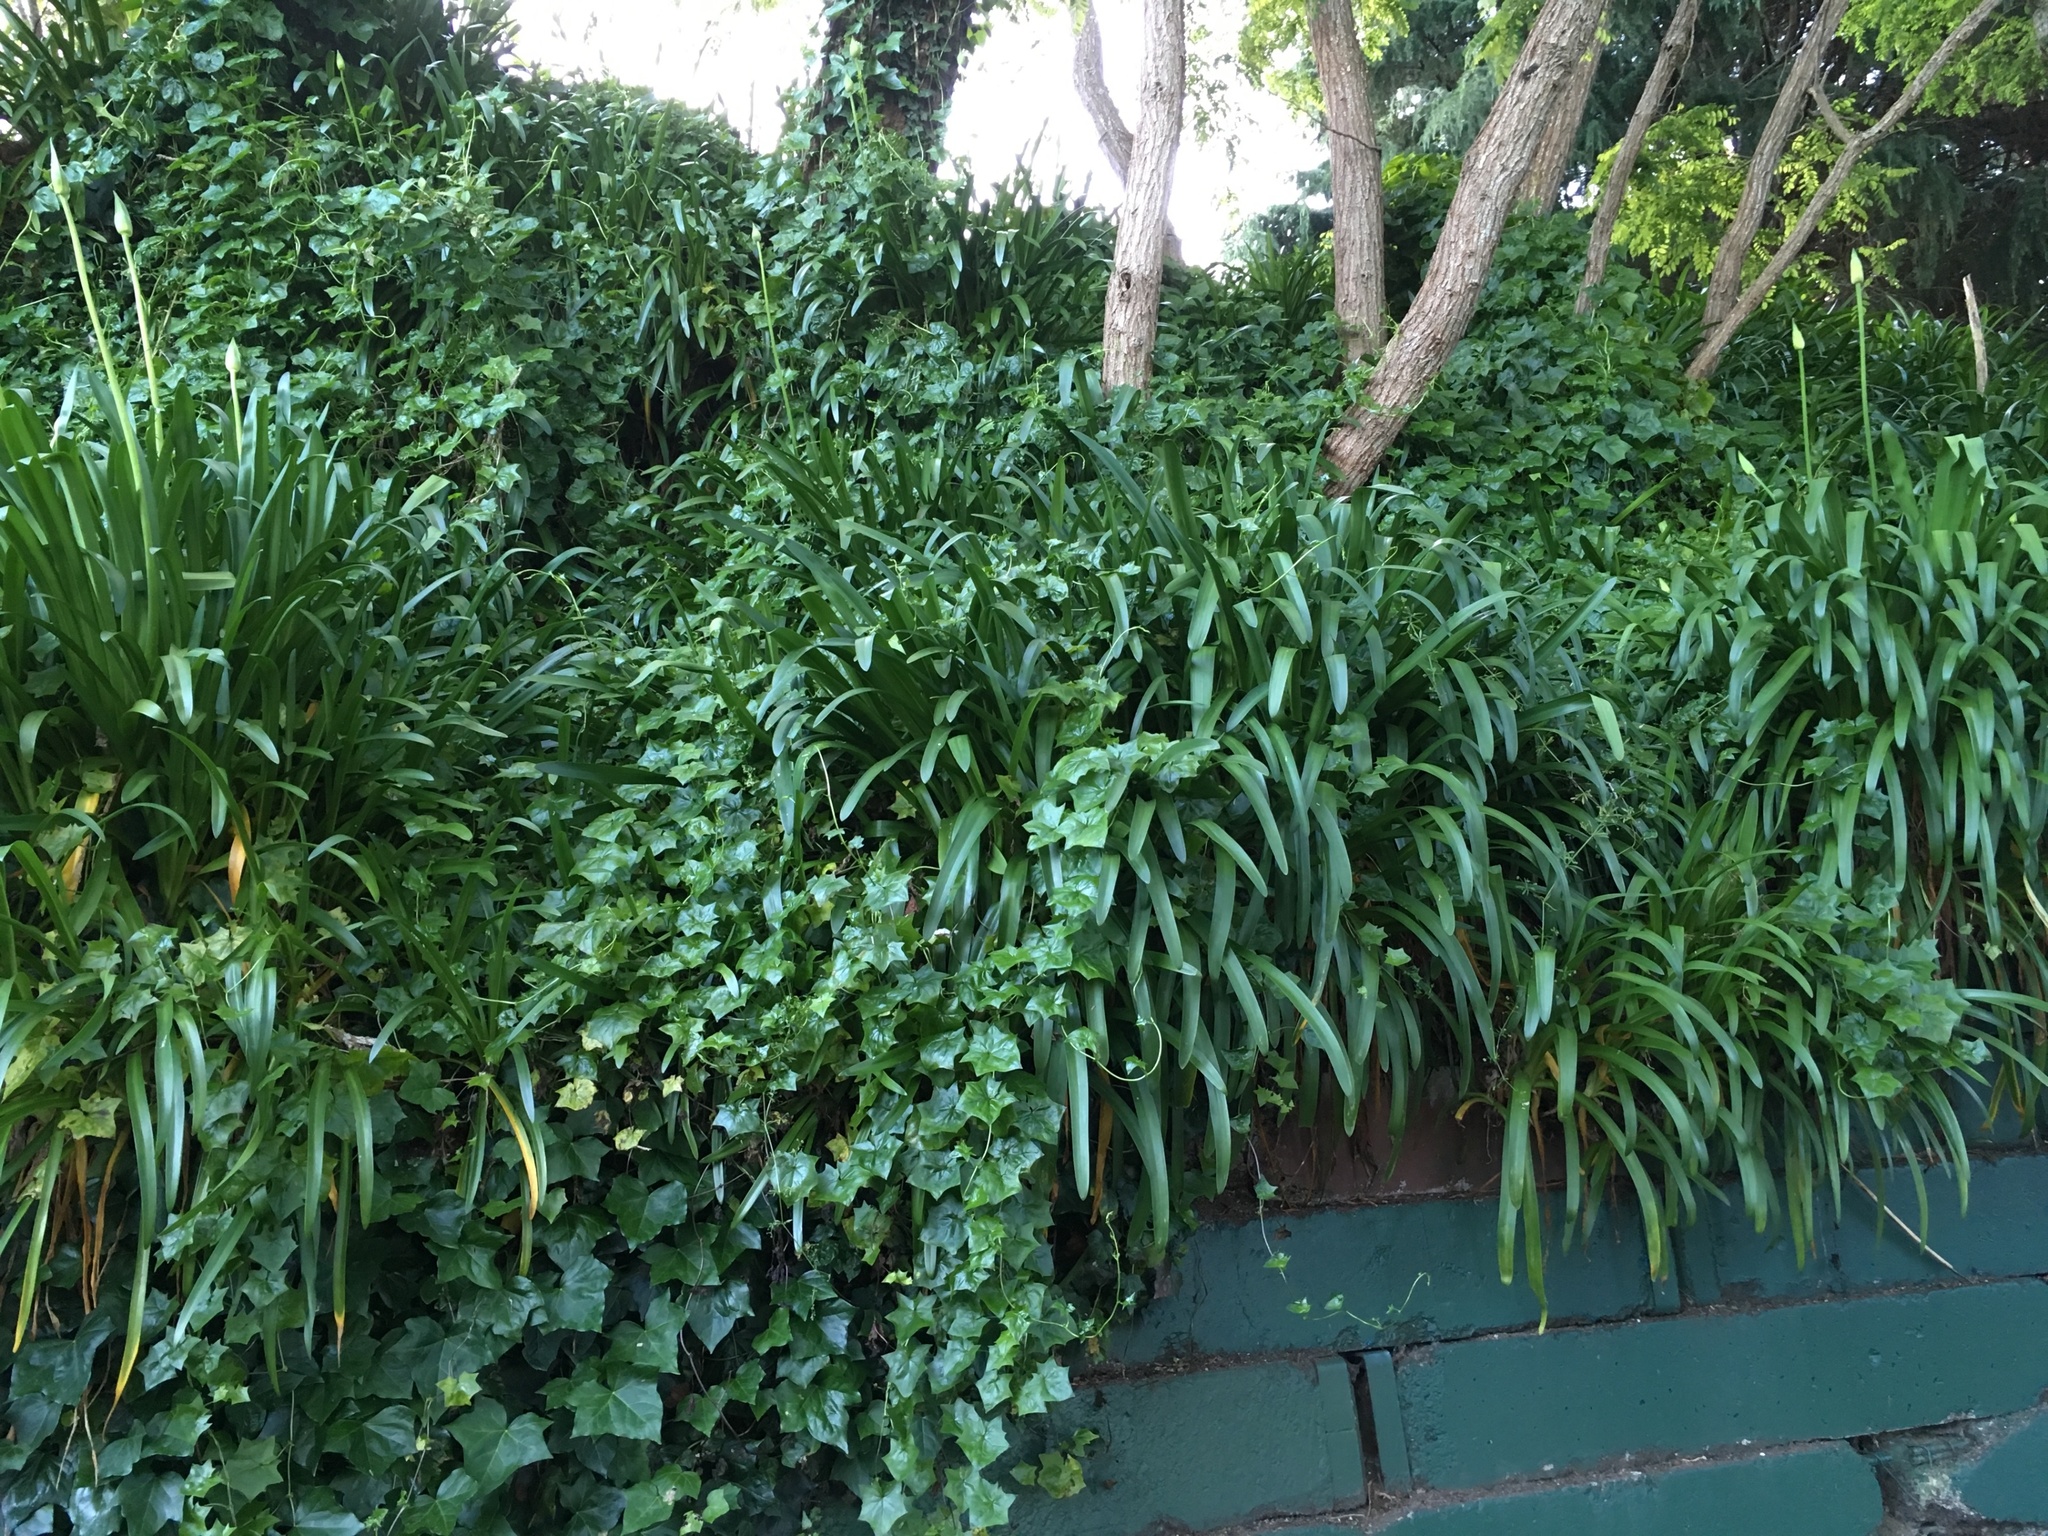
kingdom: Plantae
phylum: Tracheophyta
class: Magnoliopsida
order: Asterales
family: Asteraceae
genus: Delairea
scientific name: Delairea odorata
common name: Cape-ivy
